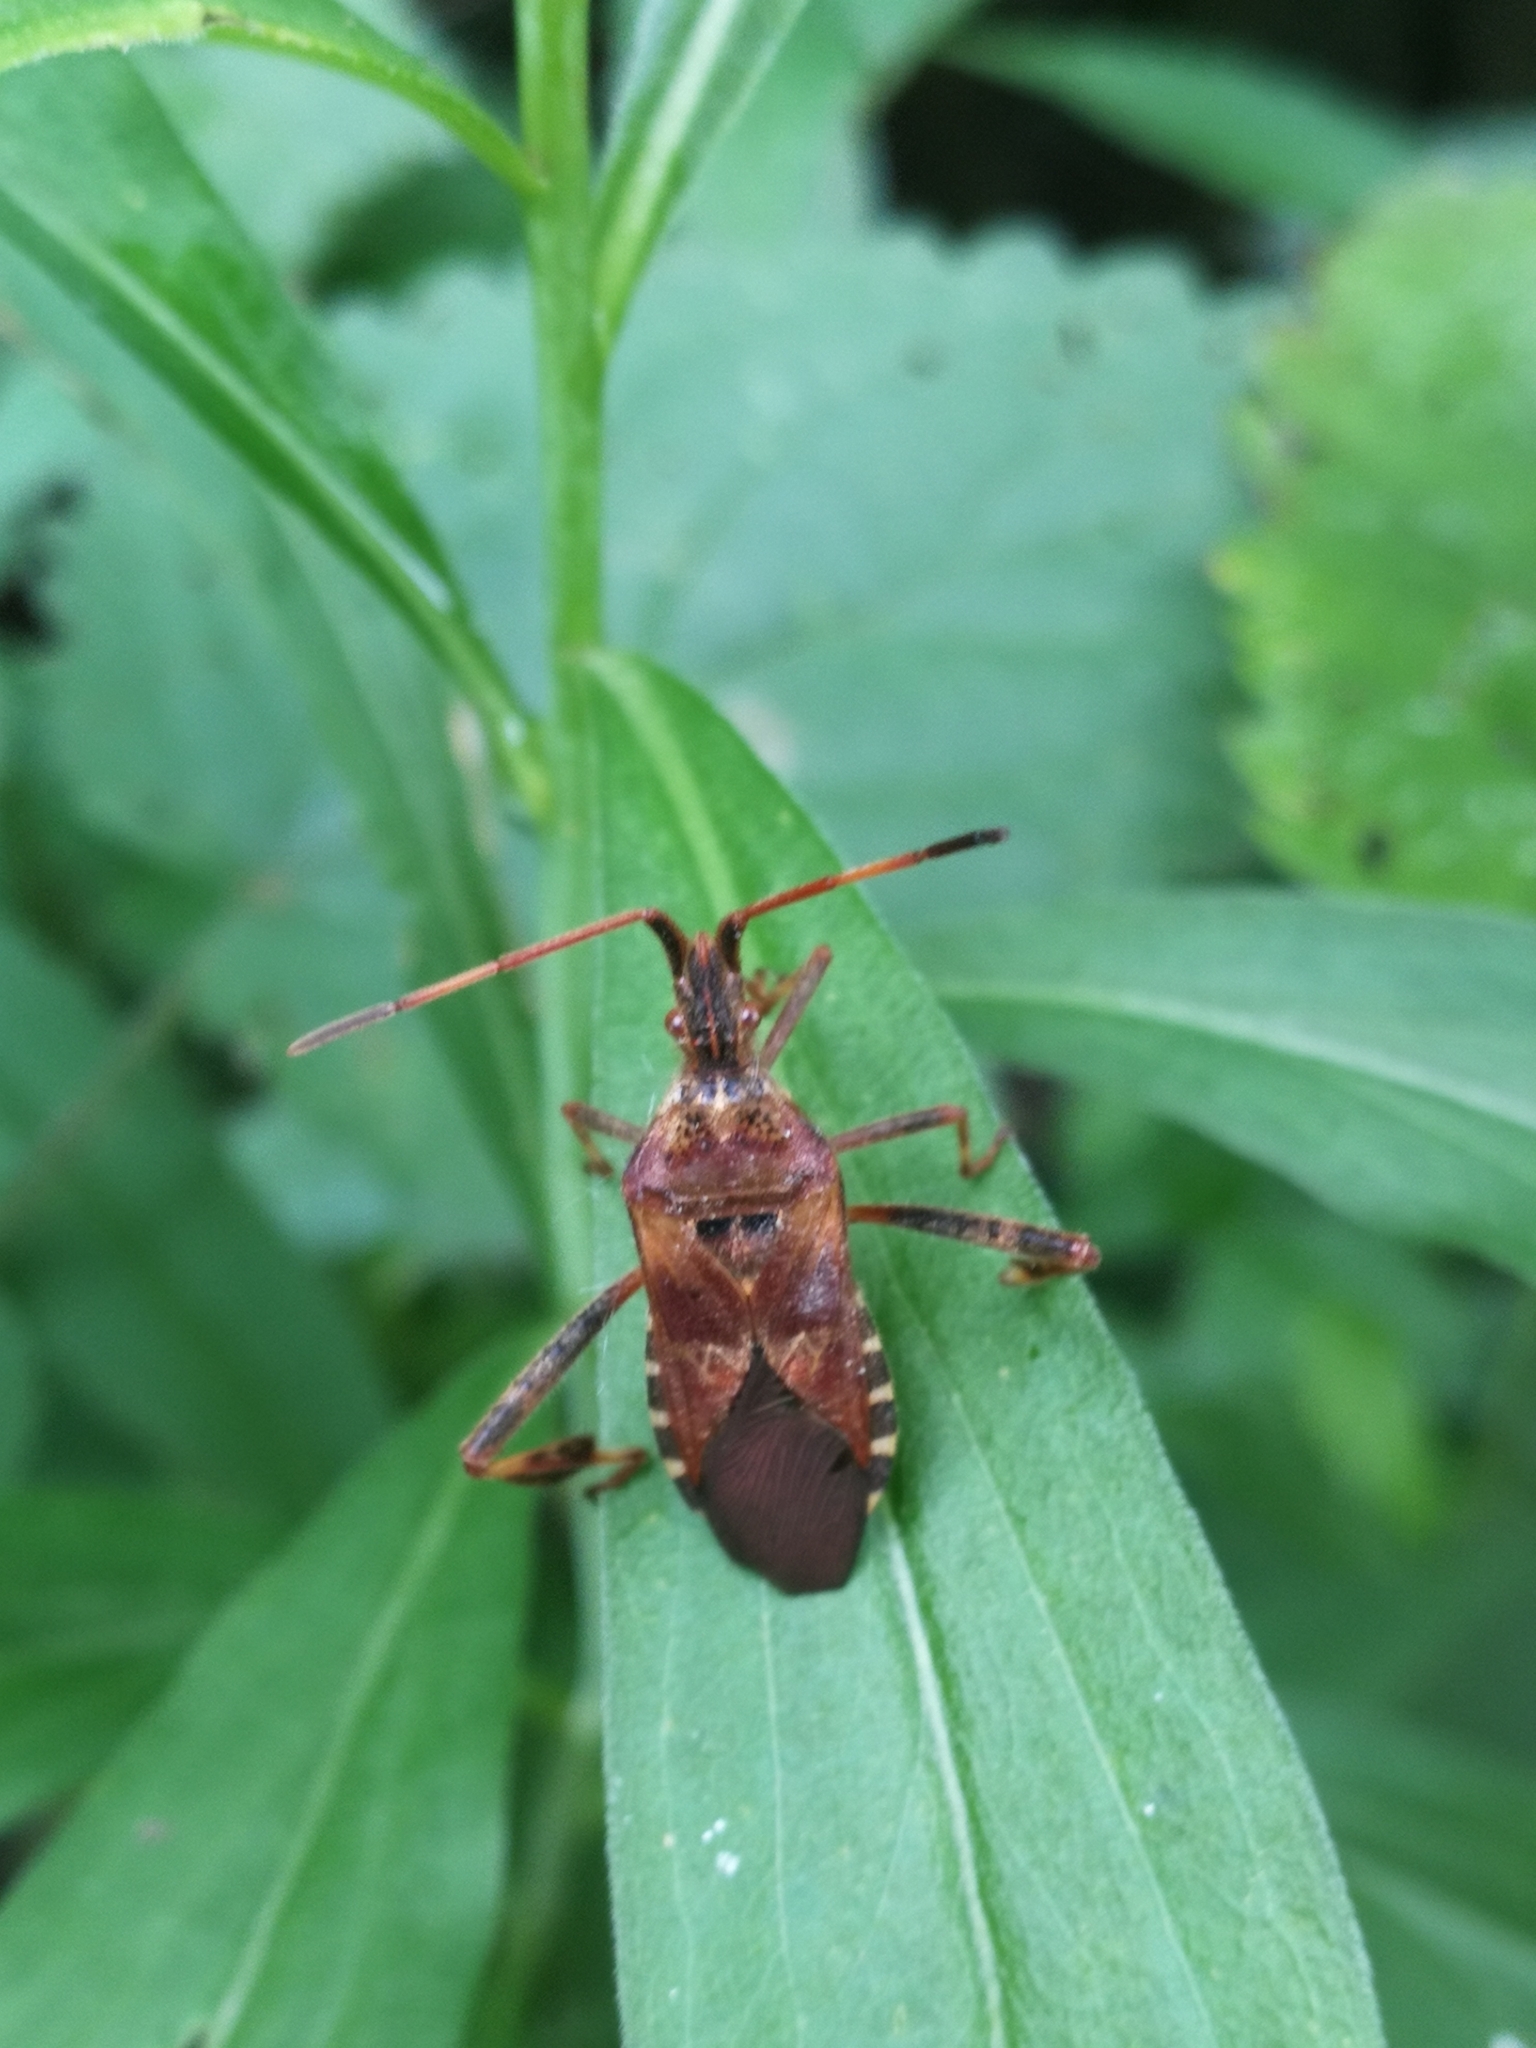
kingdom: Animalia
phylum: Arthropoda
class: Insecta
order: Hemiptera
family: Coreidae
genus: Leptoglossus
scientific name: Leptoglossus occidentalis
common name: Western conifer-seed bug
